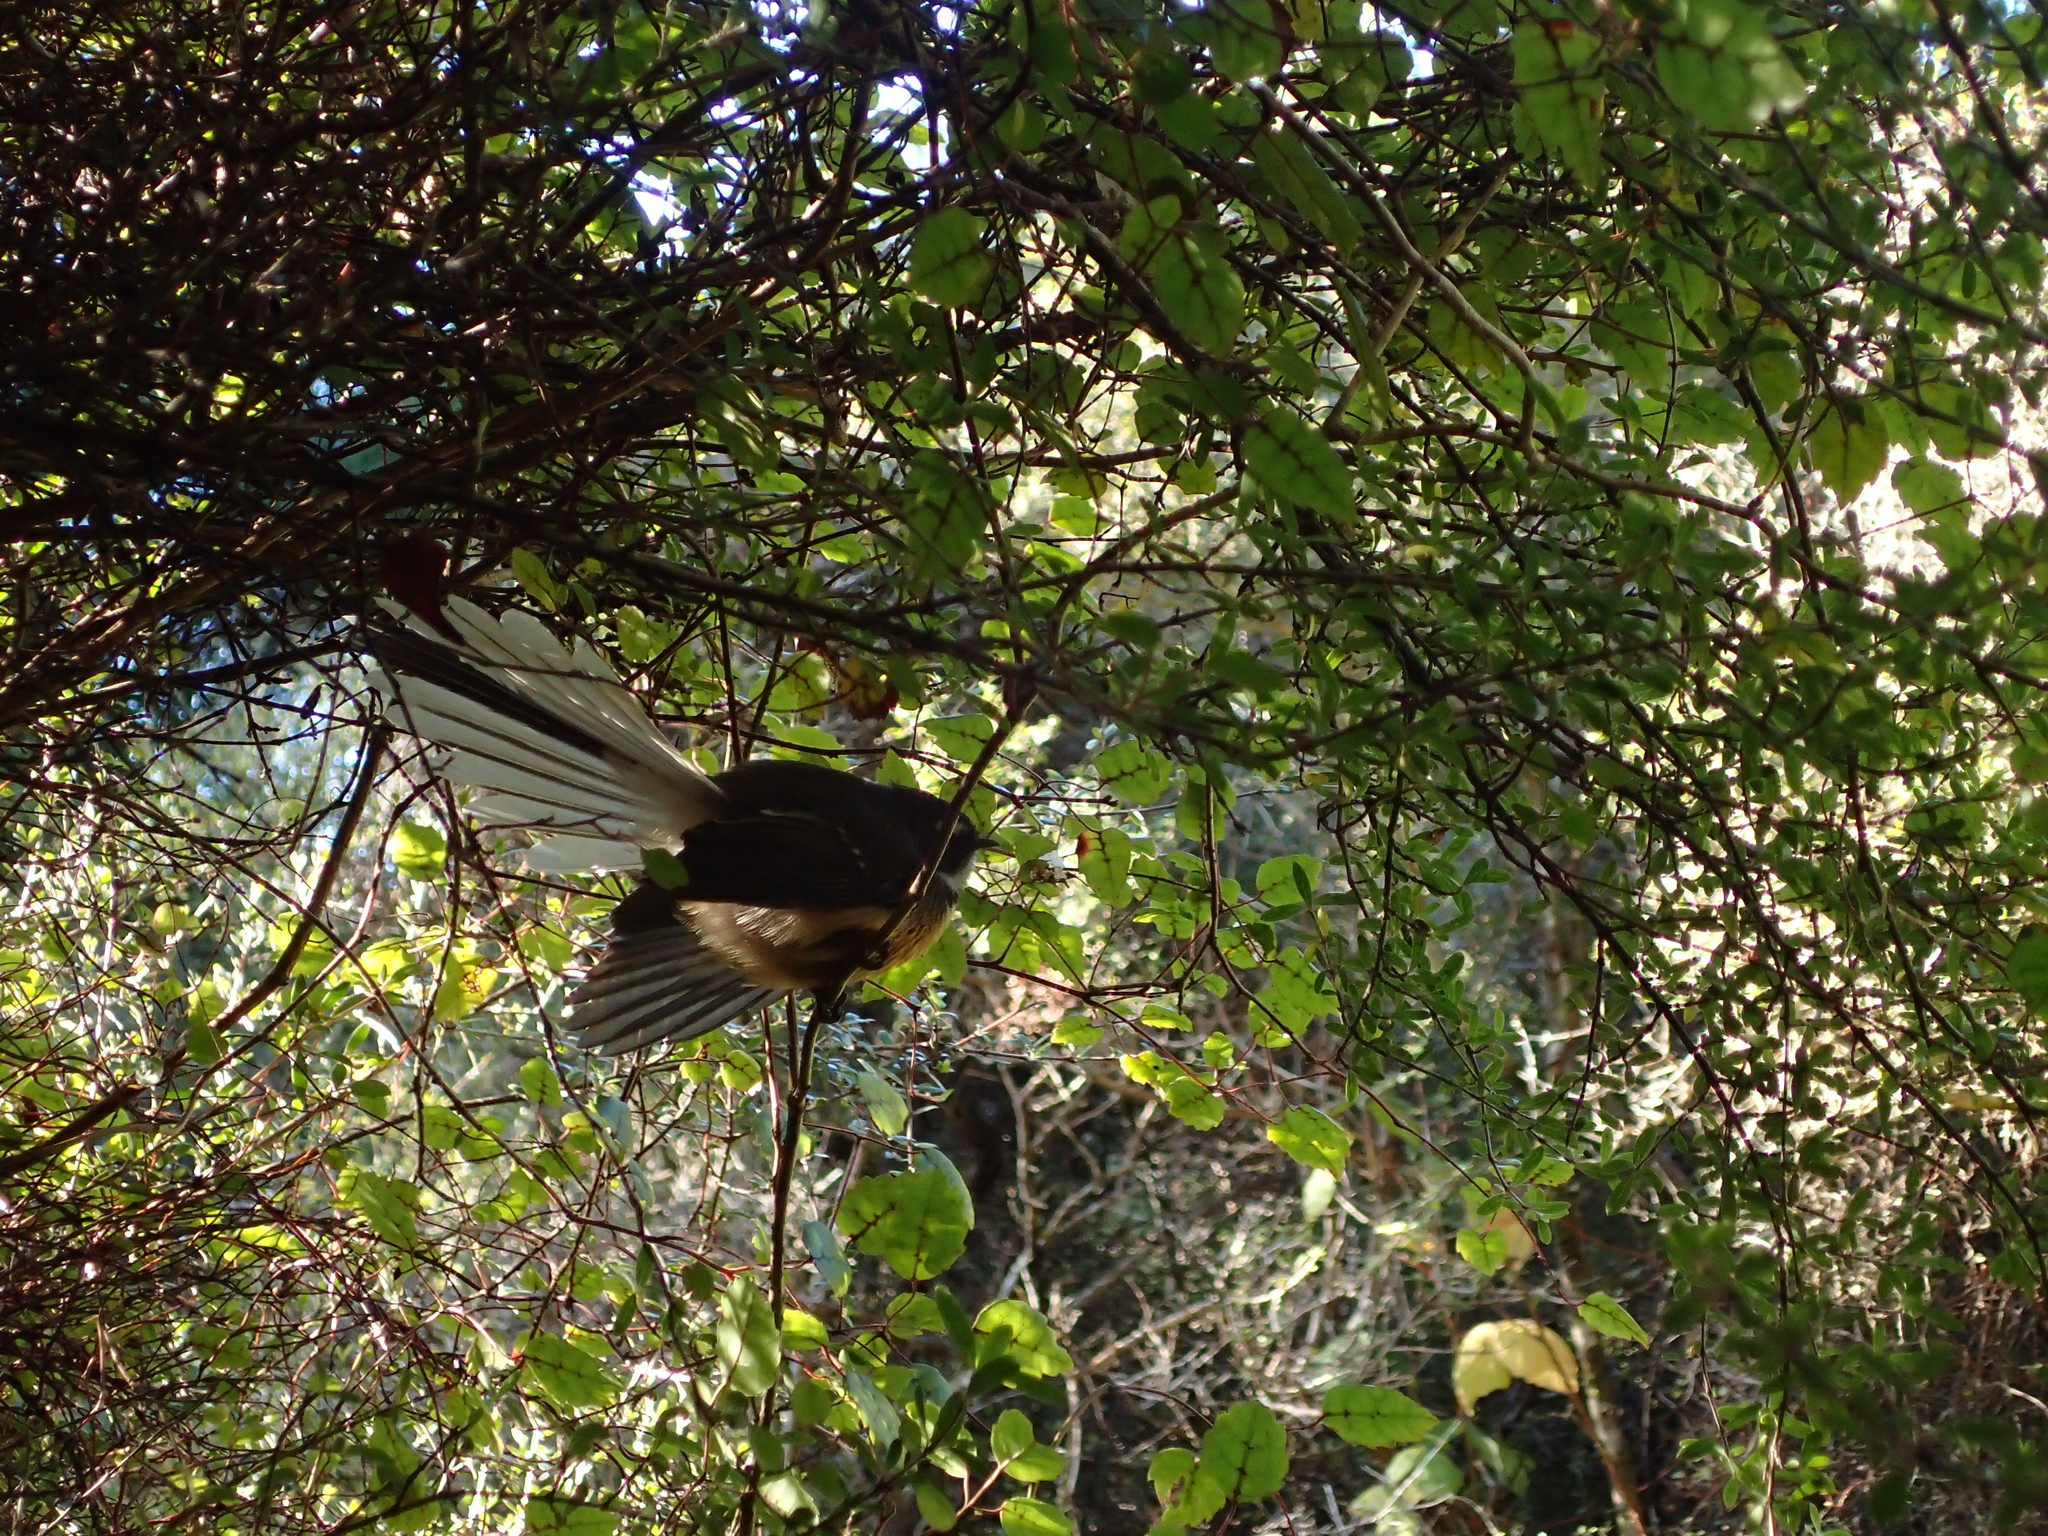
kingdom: Animalia
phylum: Chordata
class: Aves
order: Passeriformes
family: Rhipiduridae
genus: Rhipidura
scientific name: Rhipidura fuliginosa
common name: New zealand fantail
